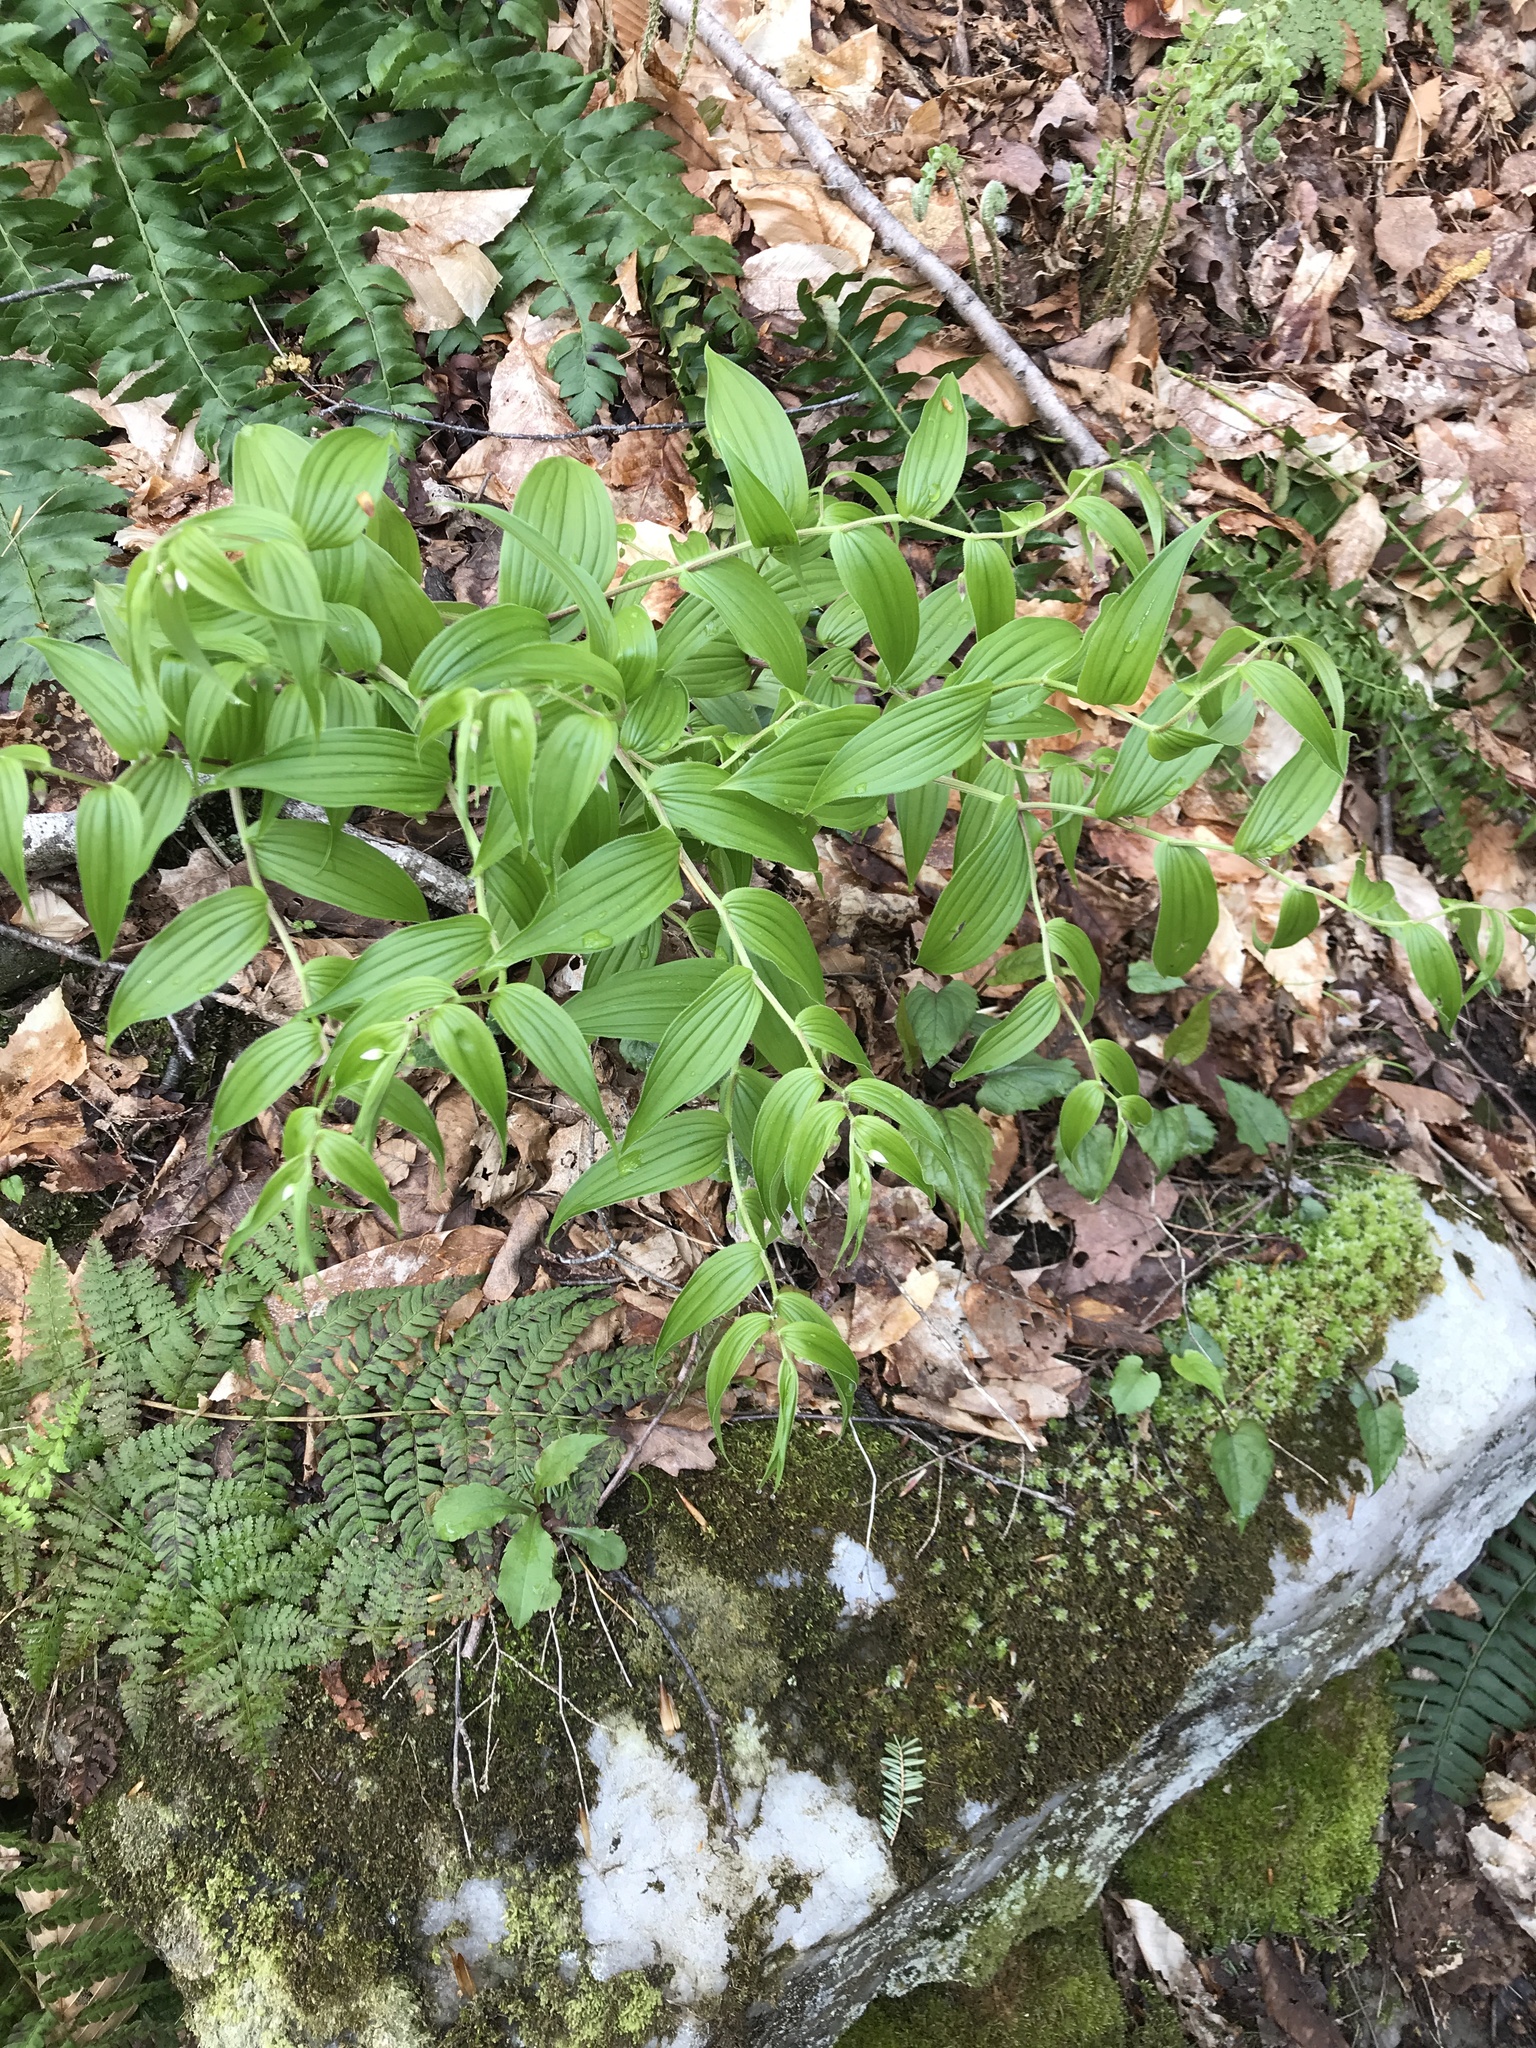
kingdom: Plantae
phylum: Tracheophyta
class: Liliopsida
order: Liliales
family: Liliaceae
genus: Streptopus
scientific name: Streptopus lanceolatus
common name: Rose mandarin
